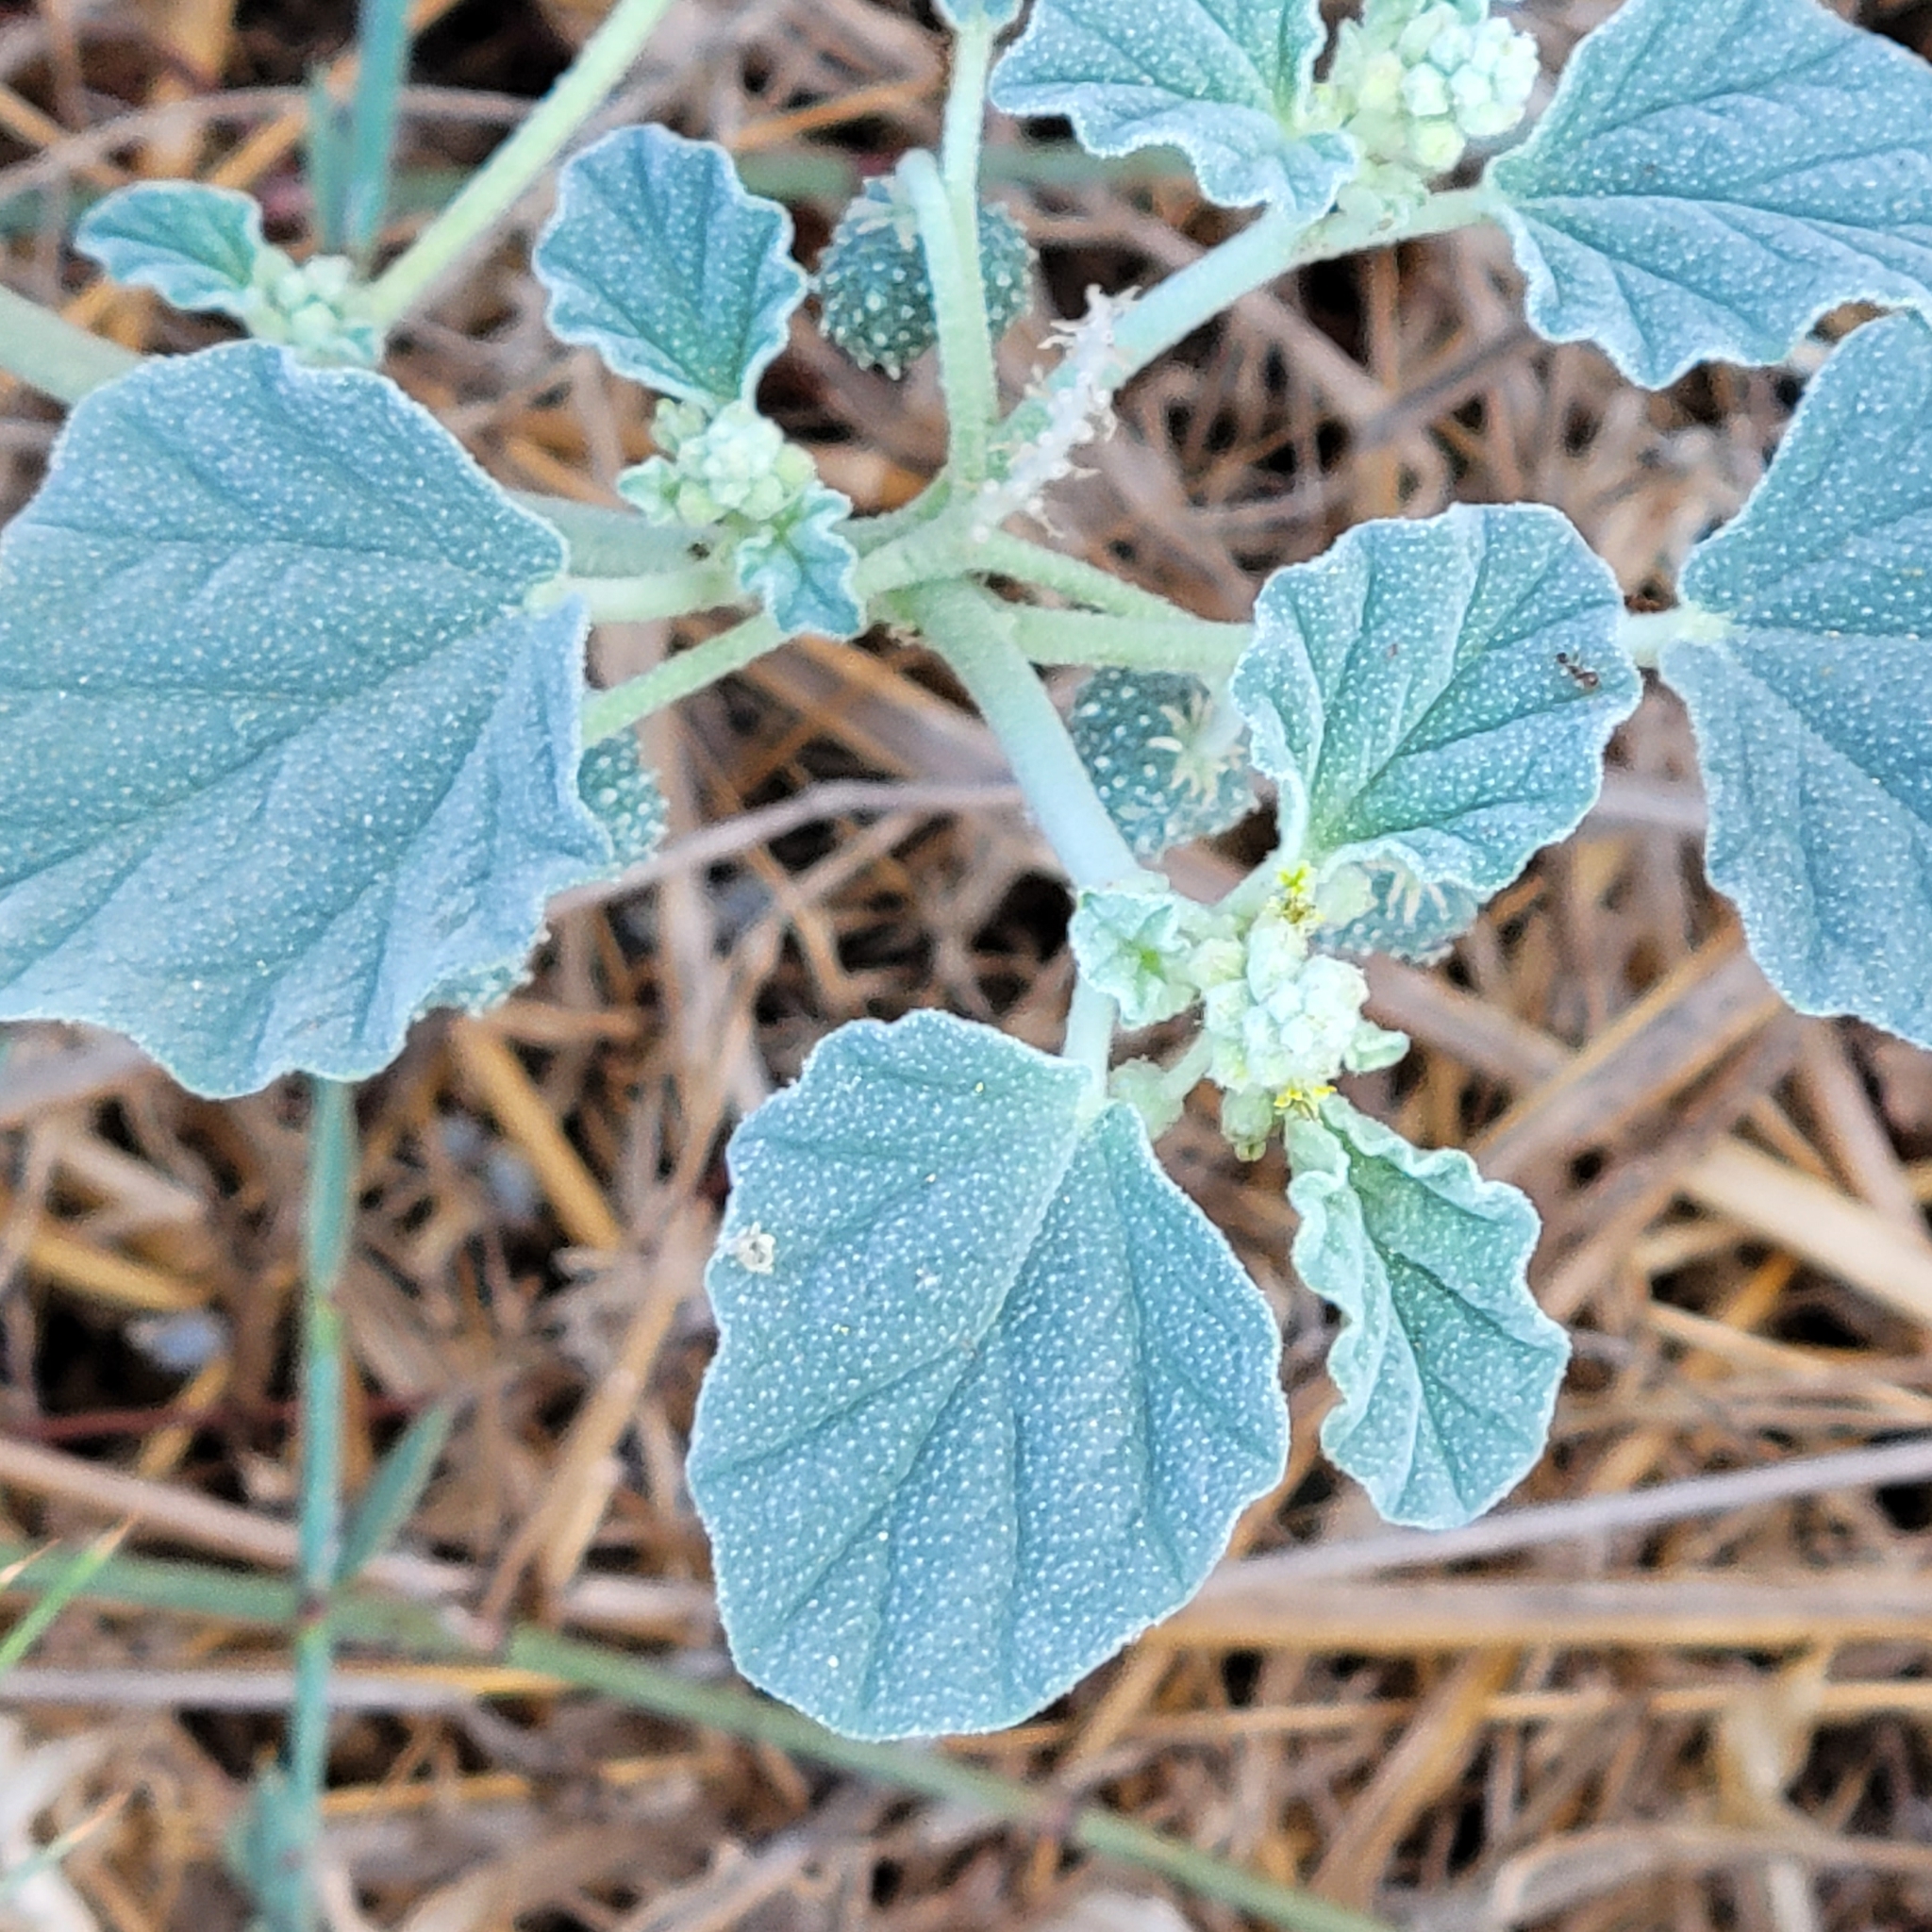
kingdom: Plantae
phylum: Tracheophyta
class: Magnoliopsida
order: Malpighiales
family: Euphorbiaceae
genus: Chrozophora
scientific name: Chrozophora tinctoria
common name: Dyer's litmus
